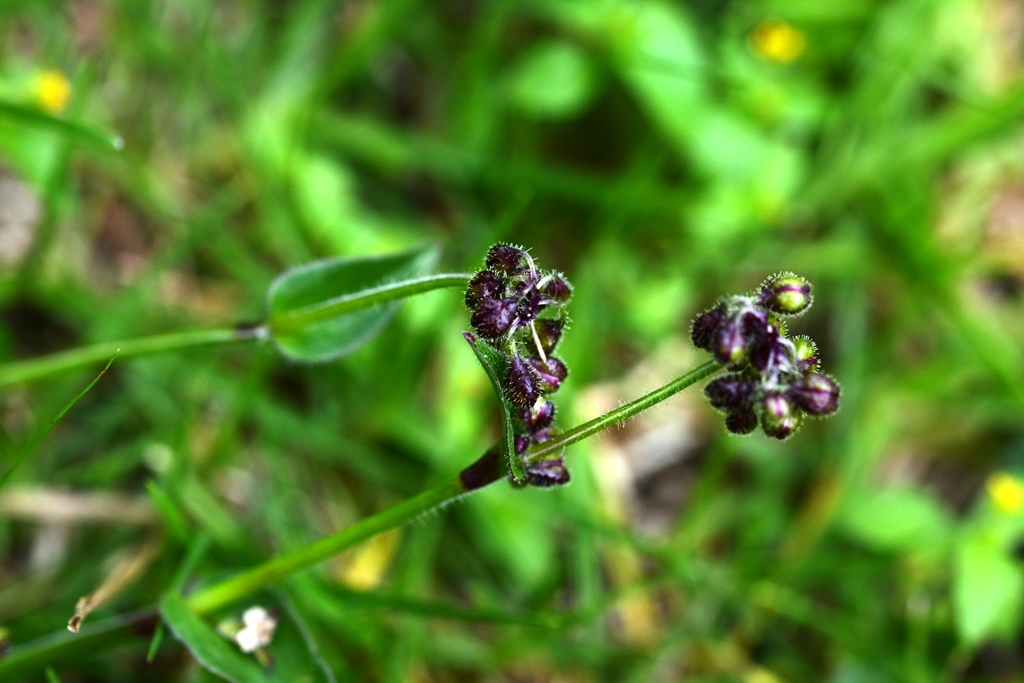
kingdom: Plantae
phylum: Tracheophyta
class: Liliopsida
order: Commelinales
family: Commelinaceae
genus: Callisia
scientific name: Callisia purpurascens
